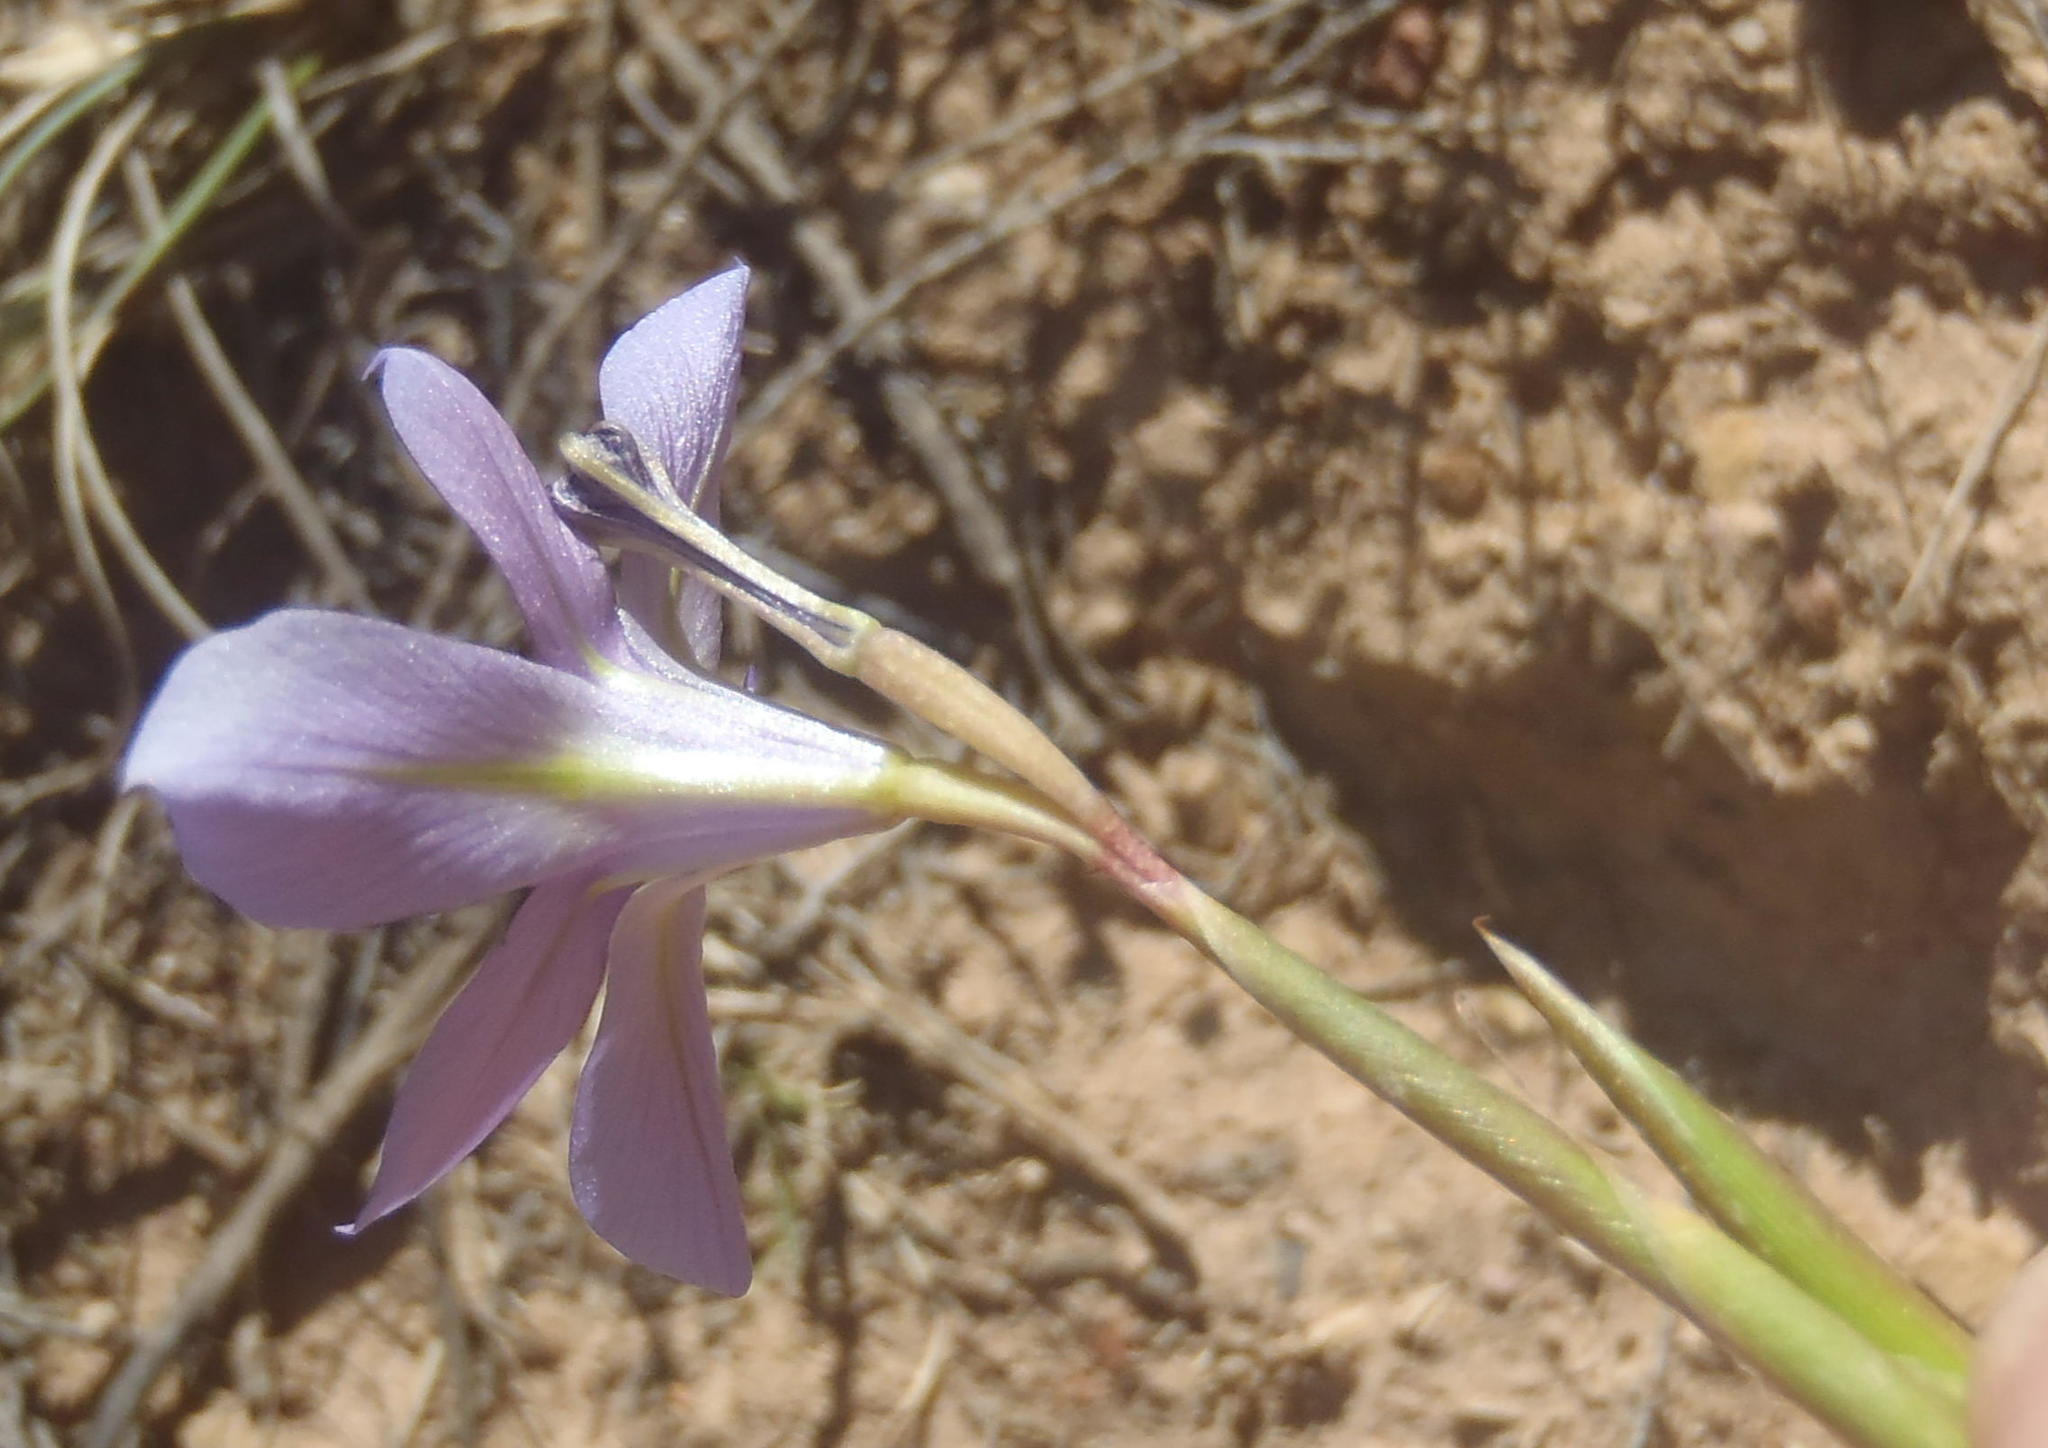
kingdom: Plantae
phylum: Tracheophyta
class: Liliopsida
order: Asparagales
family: Iridaceae
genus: Moraea
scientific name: Moraea polyanthos
